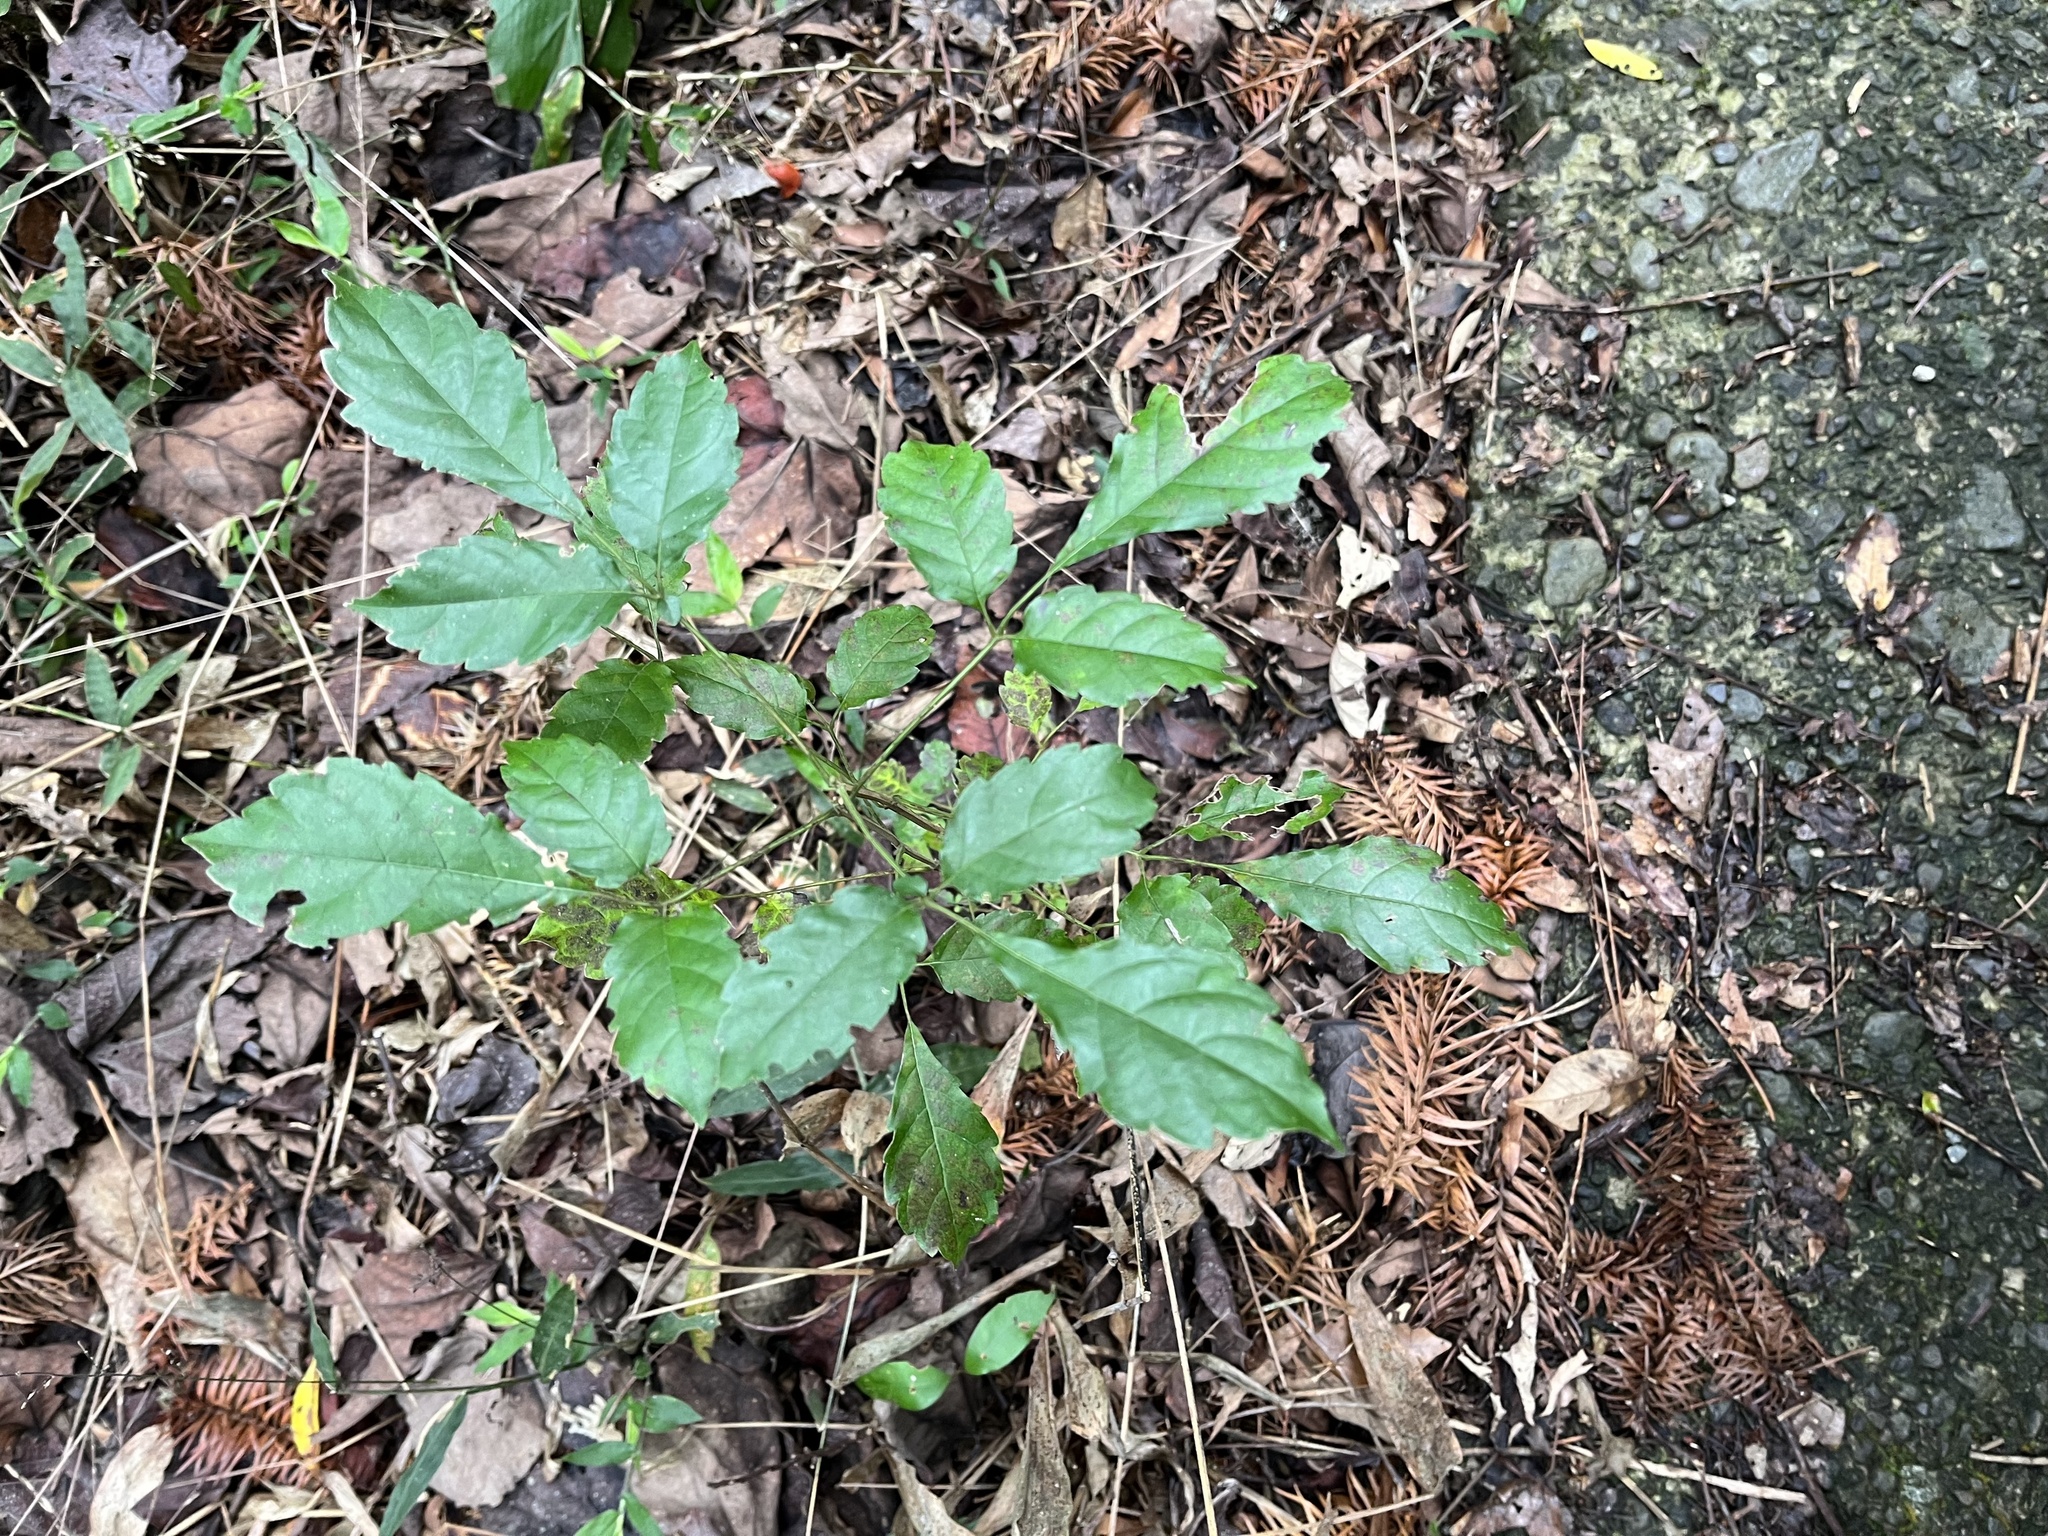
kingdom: Plantae
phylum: Tracheophyta
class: Magnoliopsida
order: Lamiales
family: Lamiaceae
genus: Vitex
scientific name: Vitex quinata
